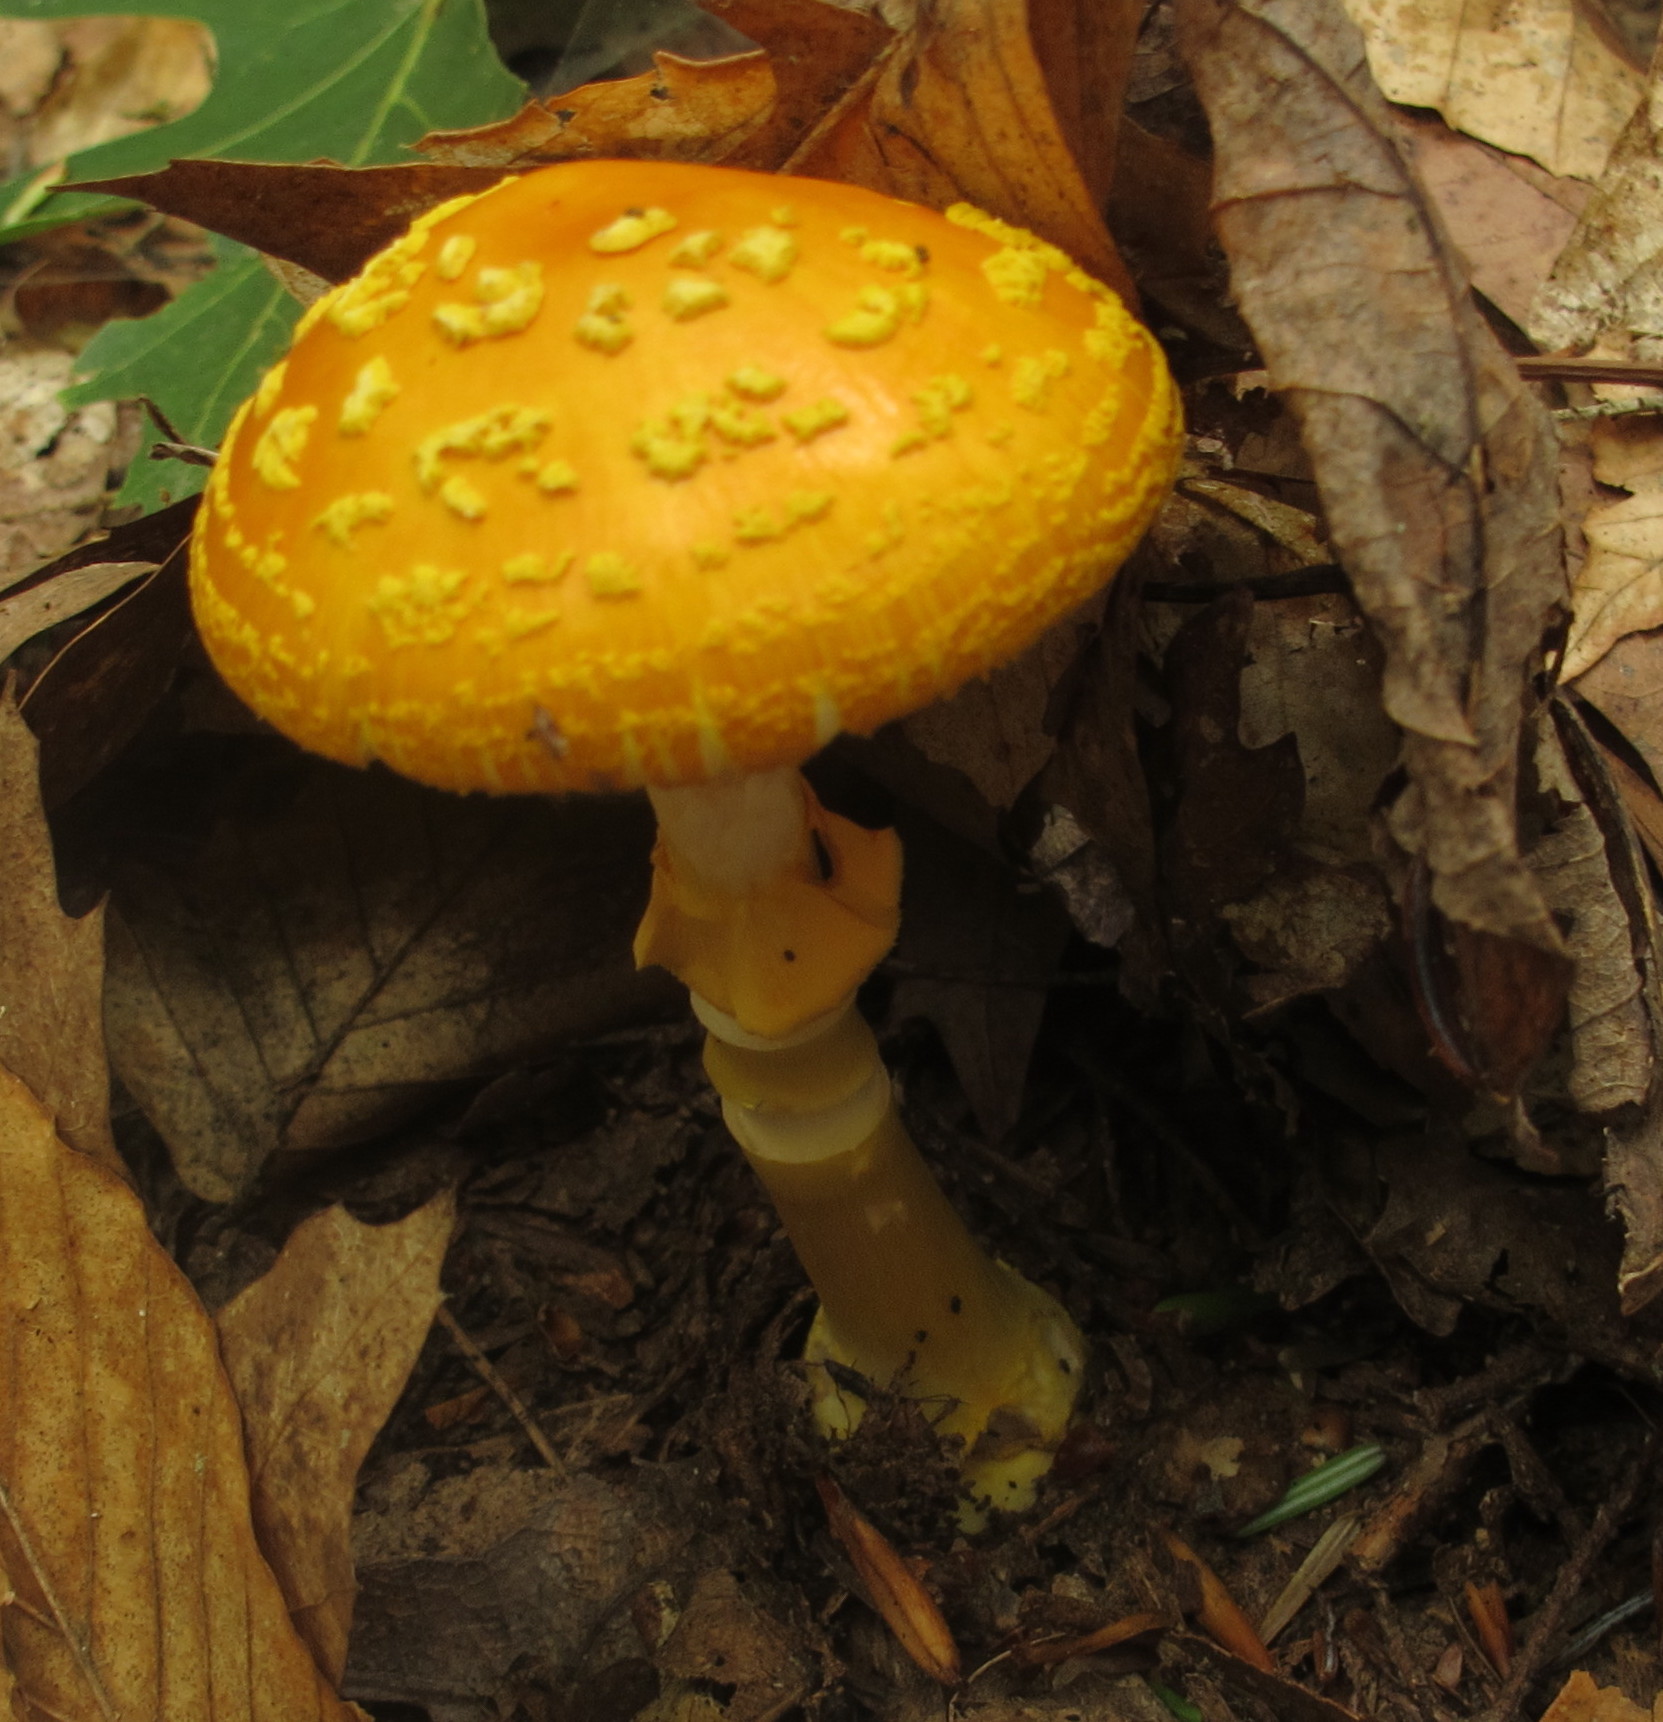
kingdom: Fungi
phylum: Basidiomycota
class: Agaricomycetes
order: Agaricales
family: Amanitaceae
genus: Amanita
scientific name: Amanita flavoconia
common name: Yellow patches
